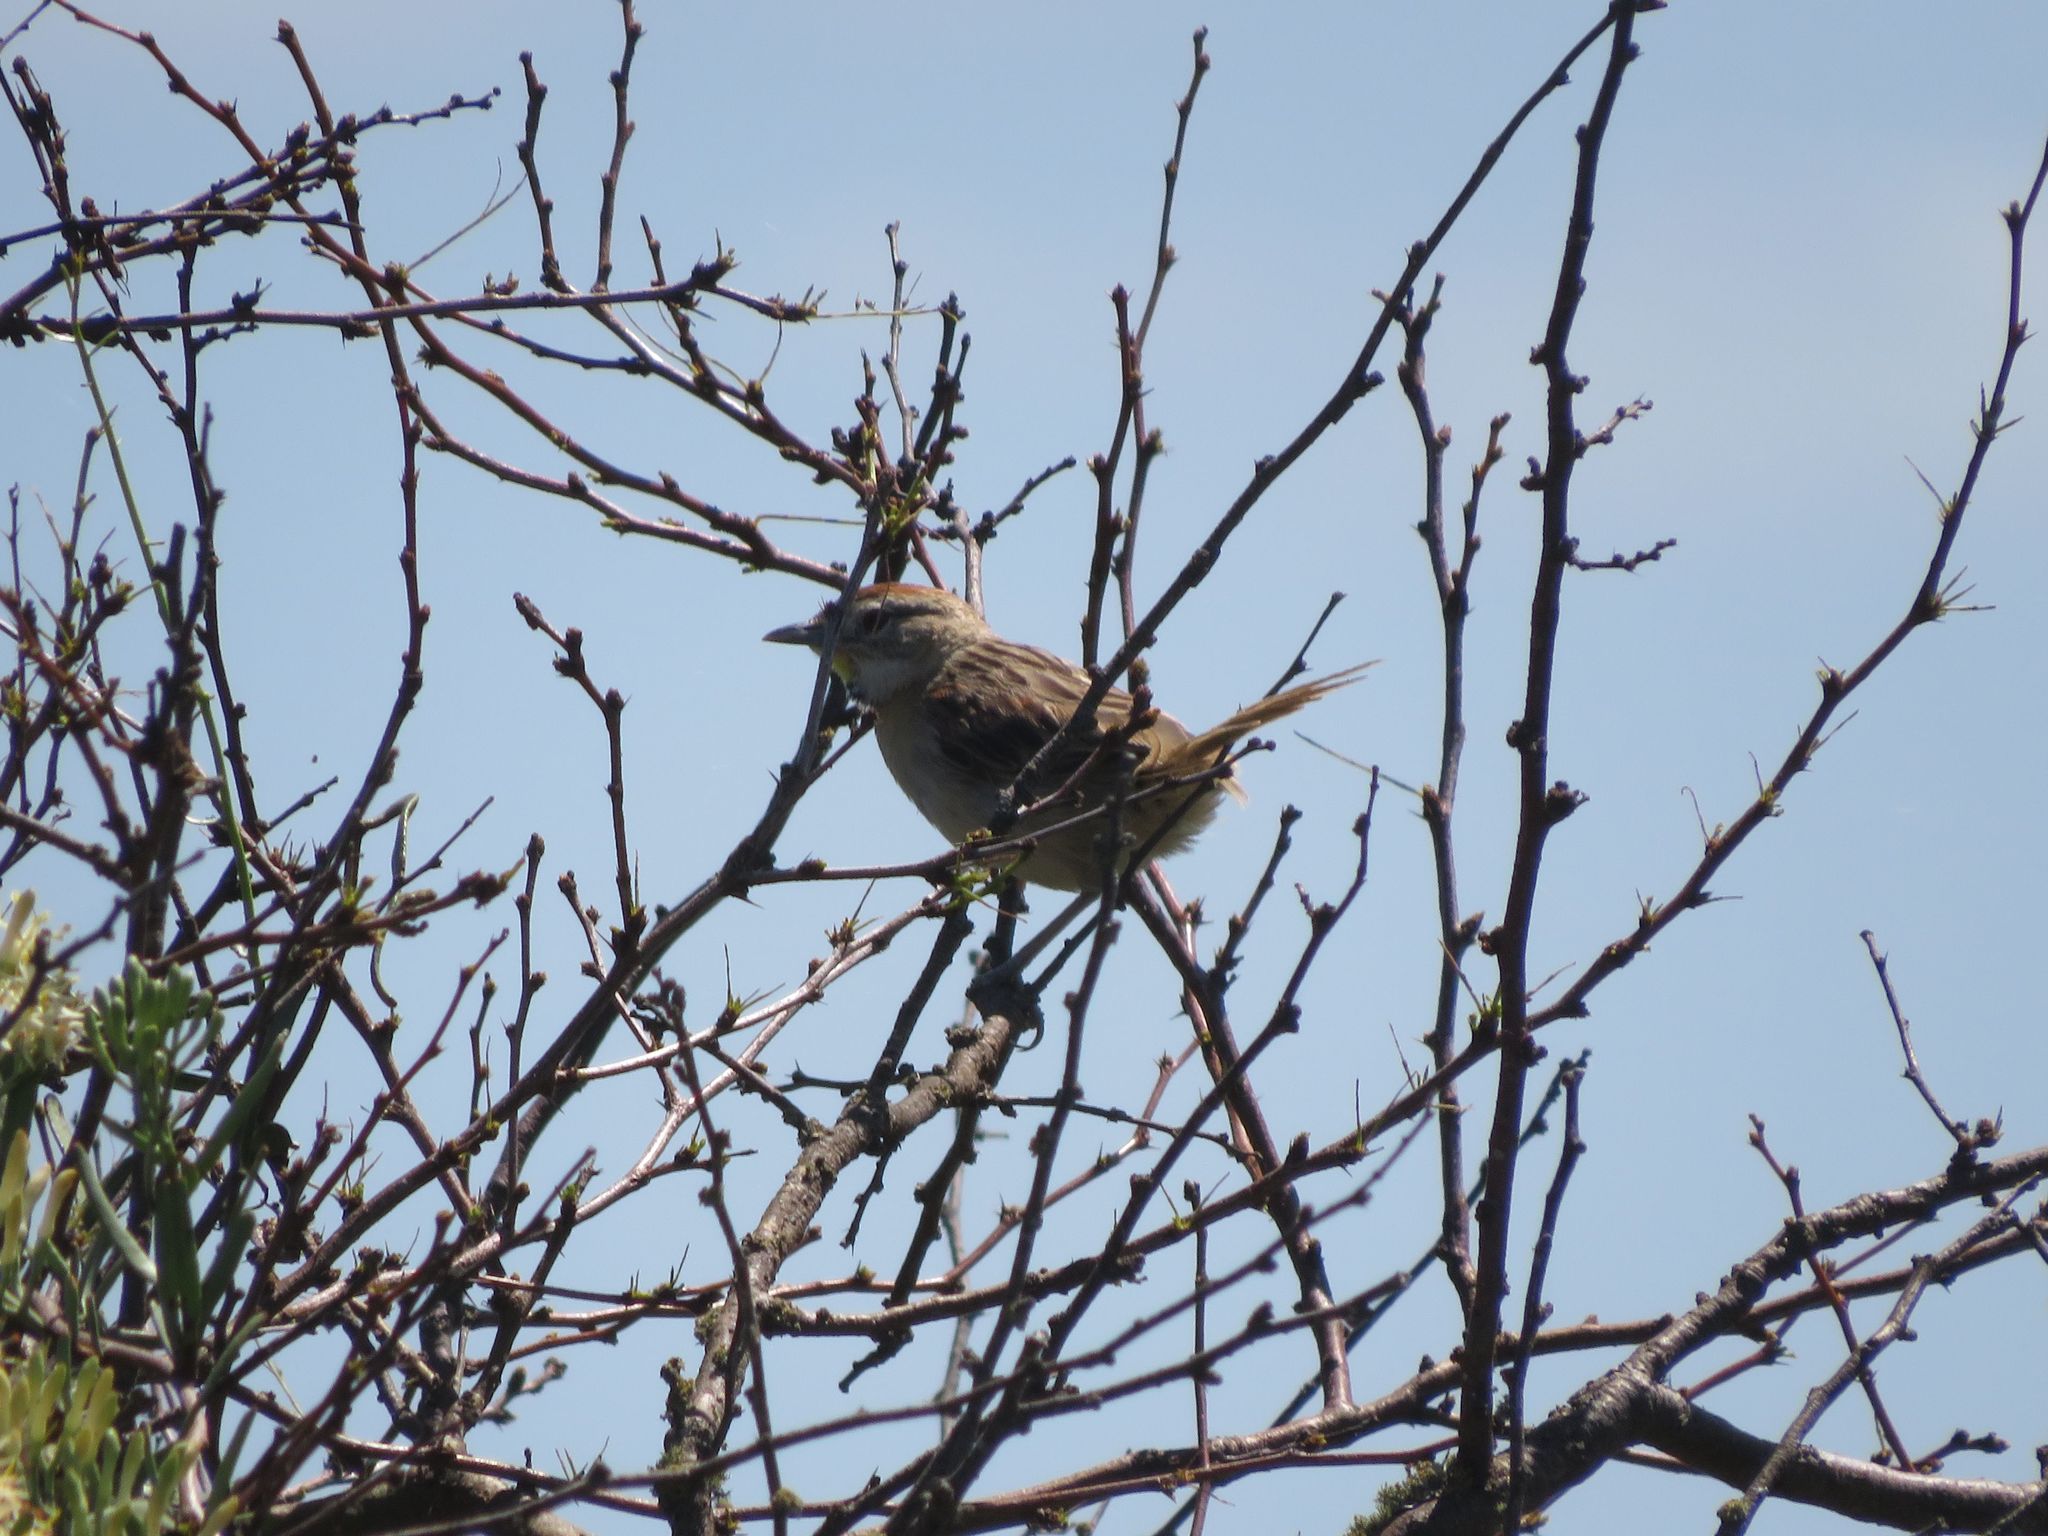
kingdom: Animalia
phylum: Chordata
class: Aves
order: Passeriformes
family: Furnariidae
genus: Schoeniophylax
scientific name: Schoeniophylax phryganophilus
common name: Chotoy spinetail
